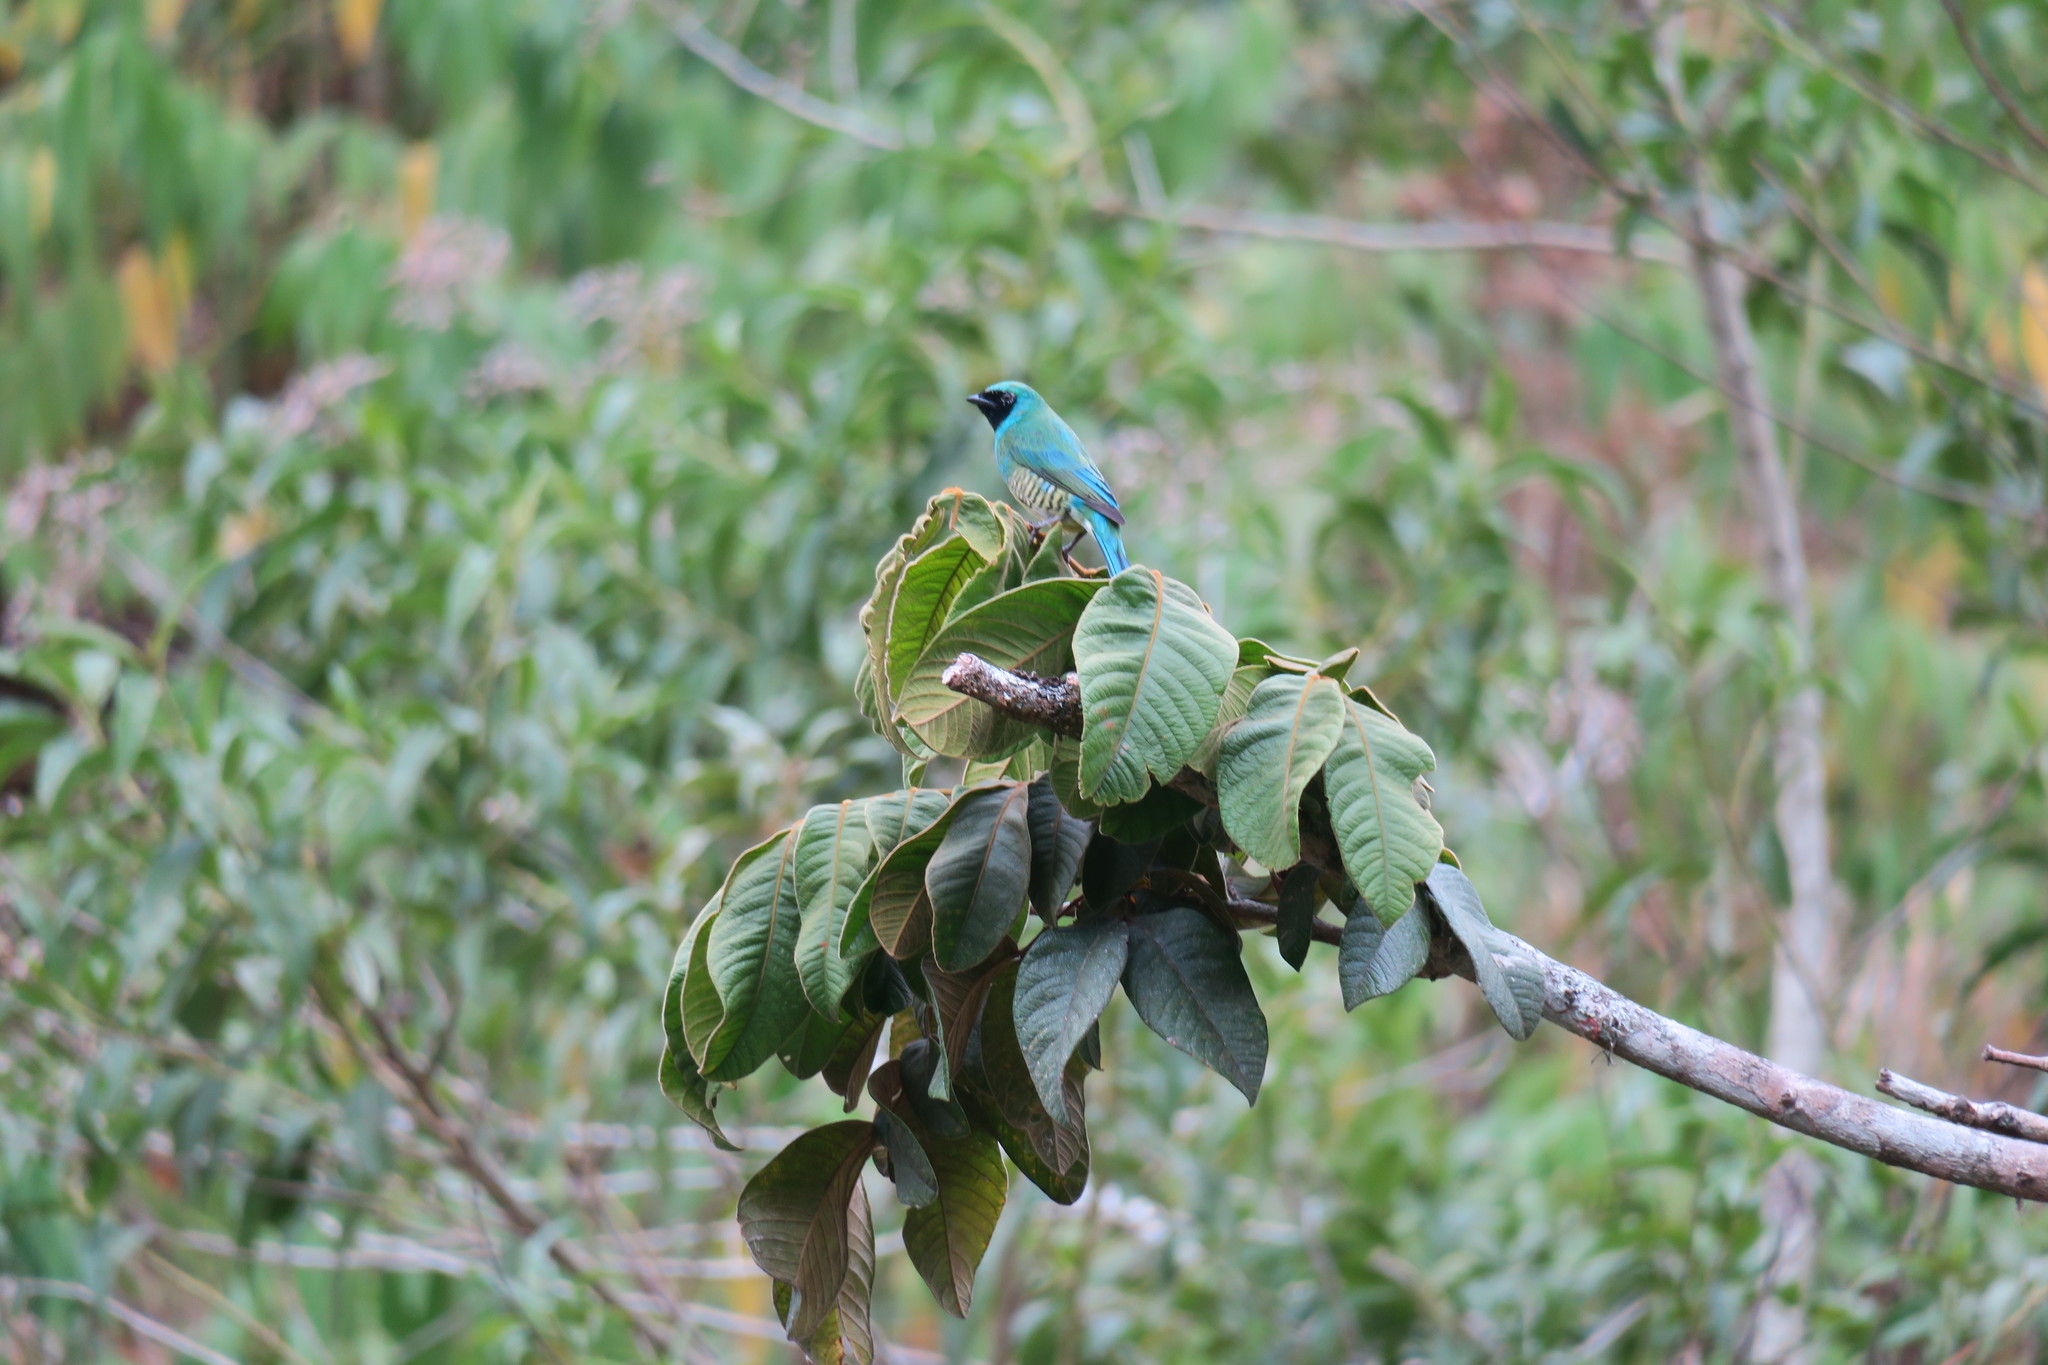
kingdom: Animalia
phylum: Chordata
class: Aves
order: Passeriformes
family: Thraupidae
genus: Tersina
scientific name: Tersina viridis
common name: Swallow tanager
